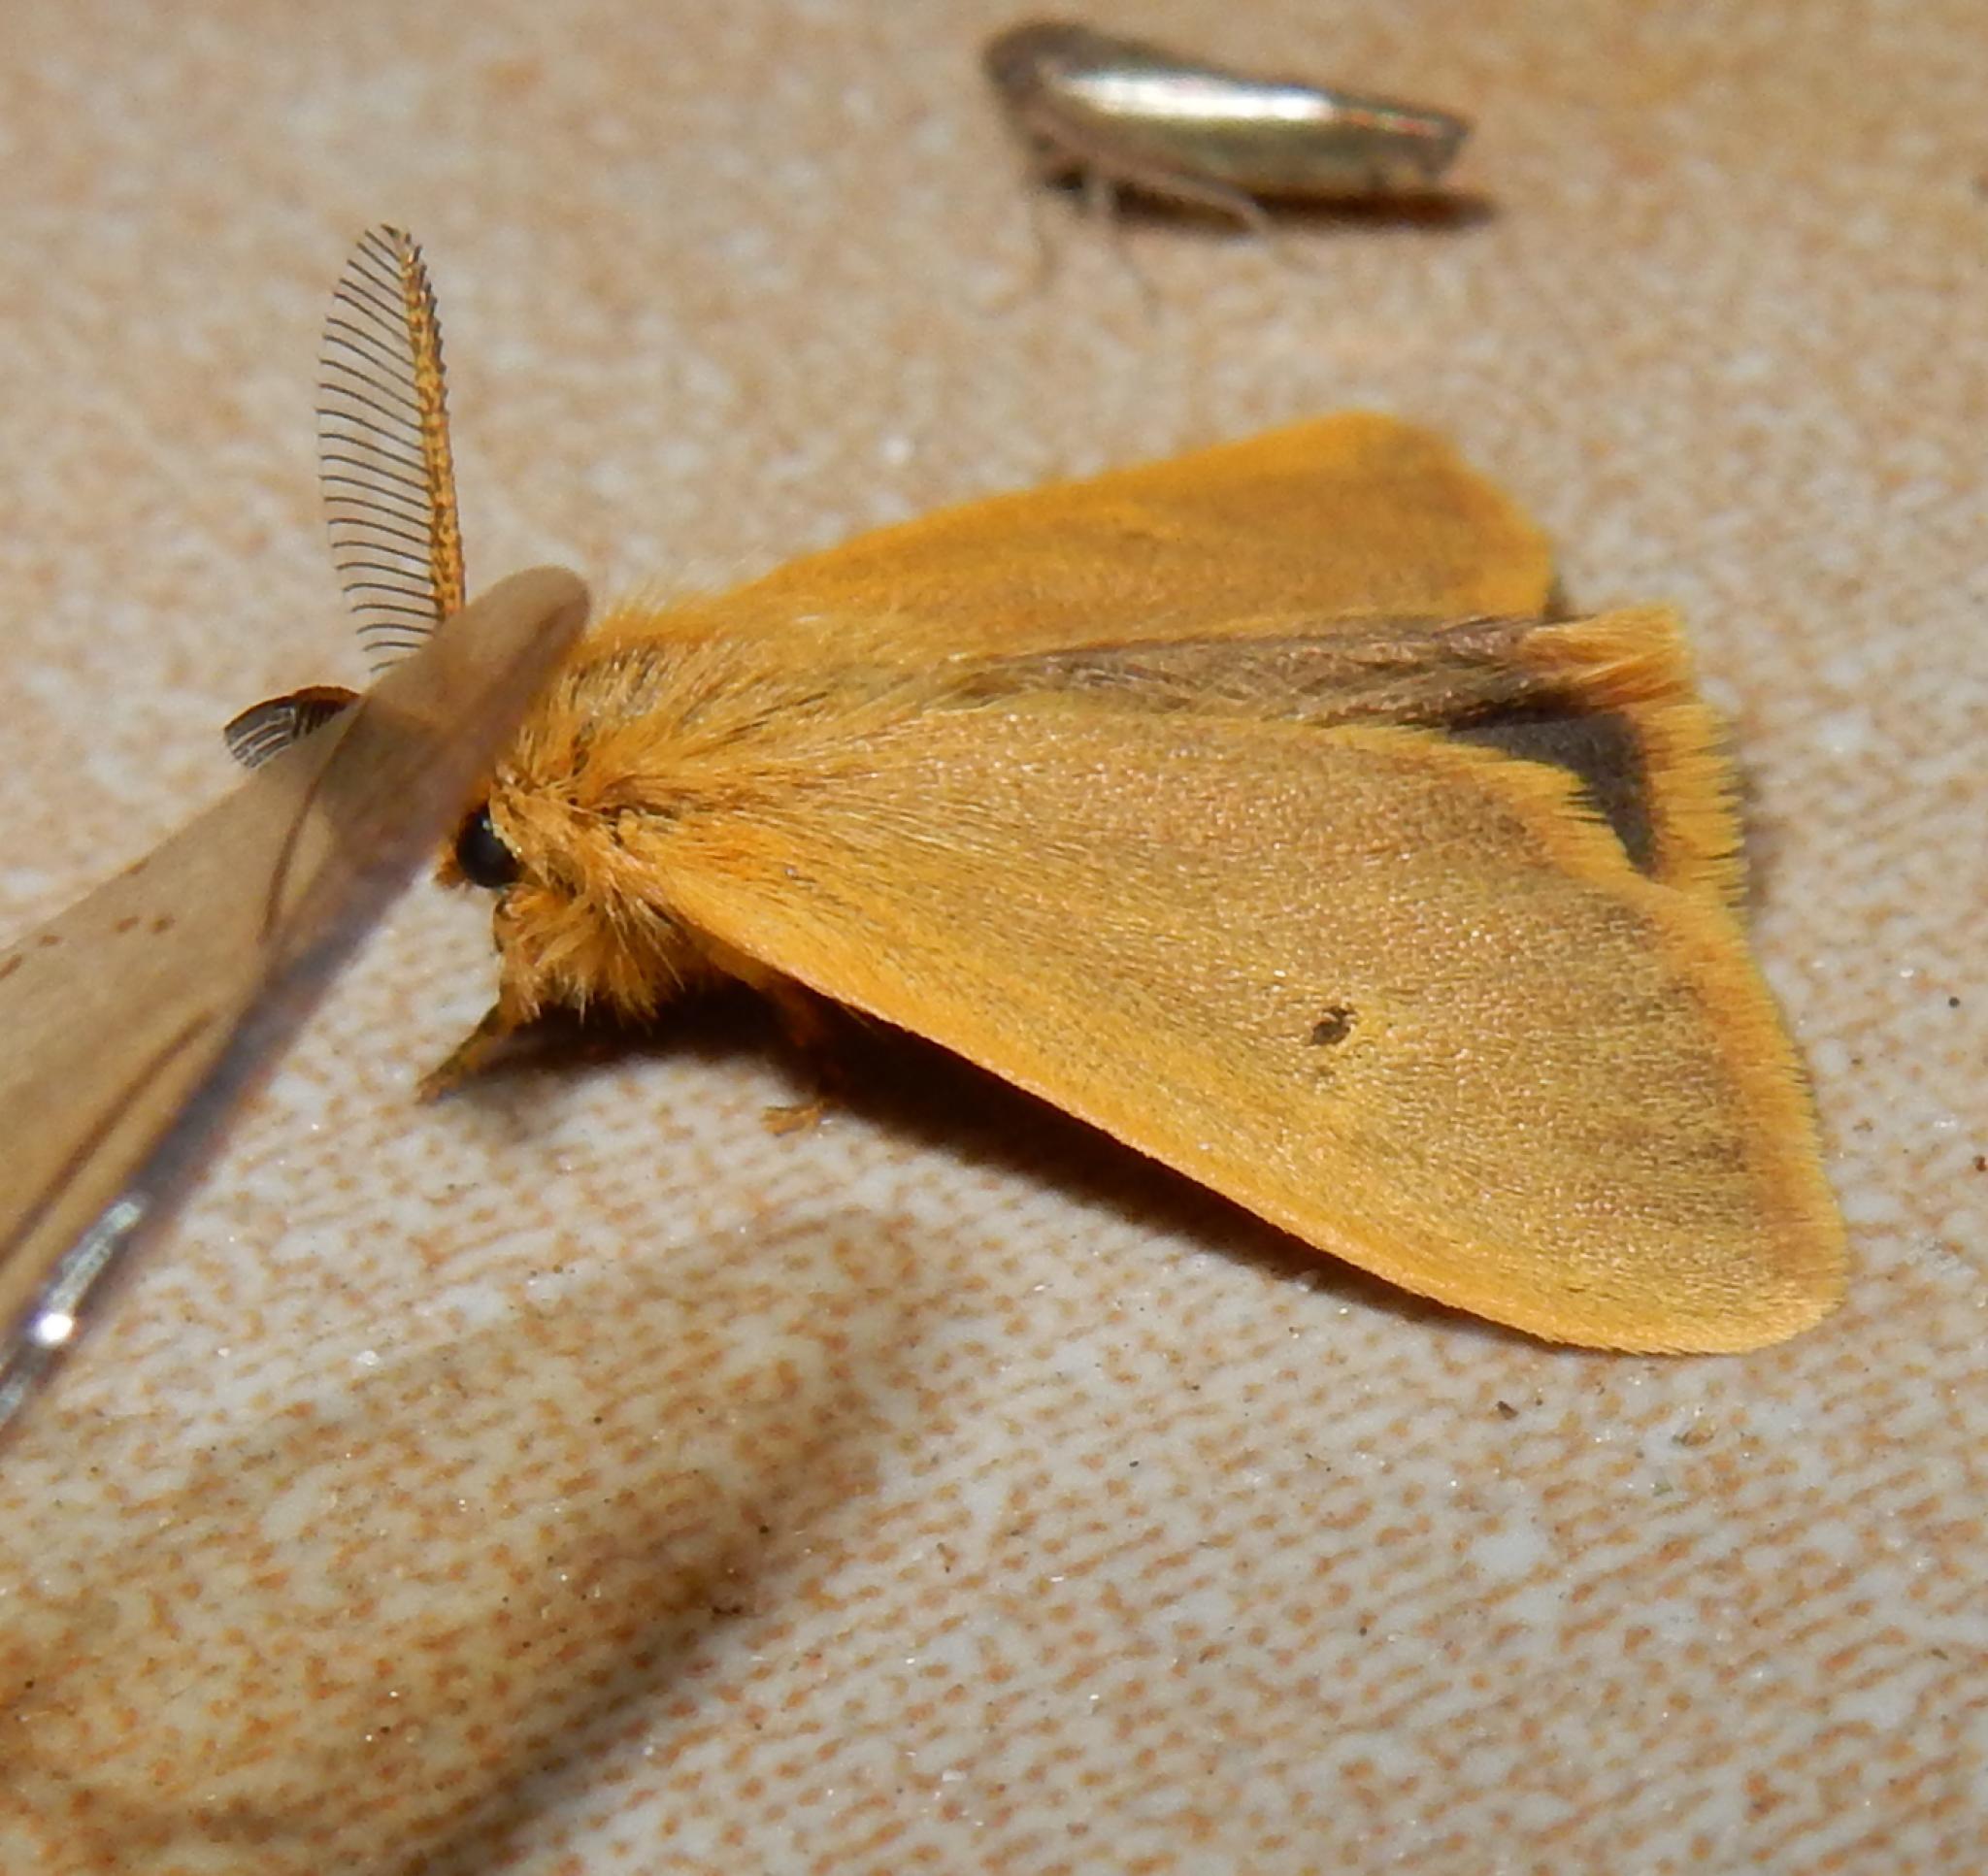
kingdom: Animalia
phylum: Arthropoda
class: Insecta
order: Lepidoptera
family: Erebidae
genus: Bracharoa
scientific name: Bracharoa dregei
